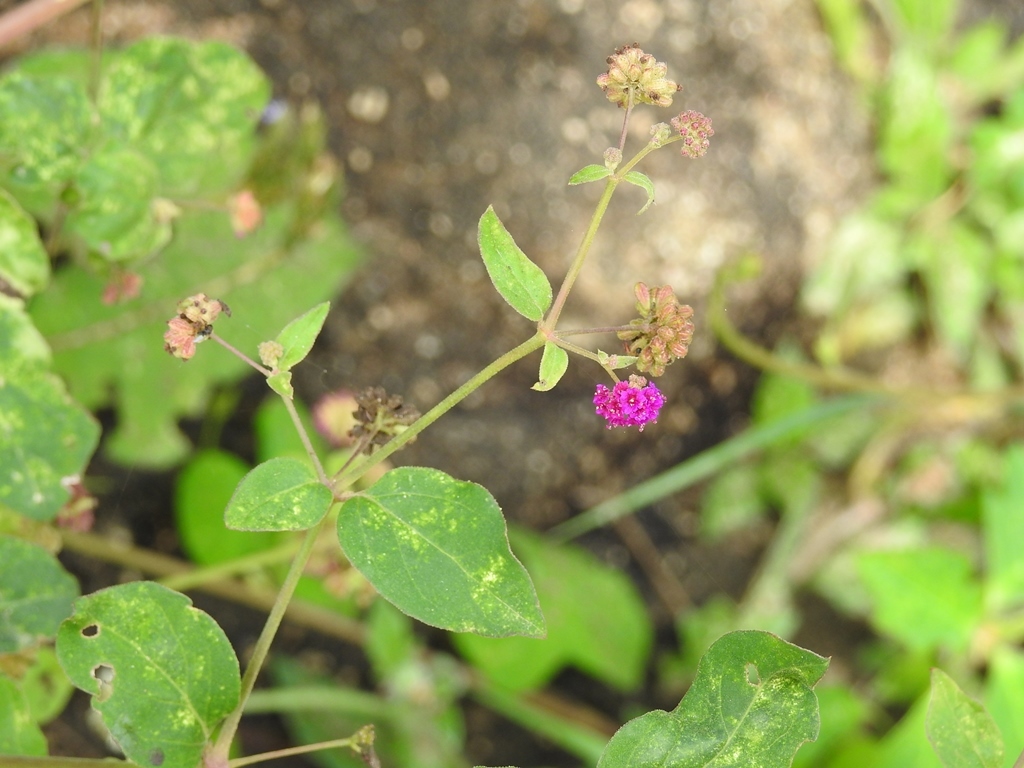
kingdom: Plantae
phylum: Tracheophyta
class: Magnoliopsida
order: Caryophyllales
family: Nyctaginaceae
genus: Boerhavia
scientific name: Boerhavia coccinea
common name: Scarlet spiderling
